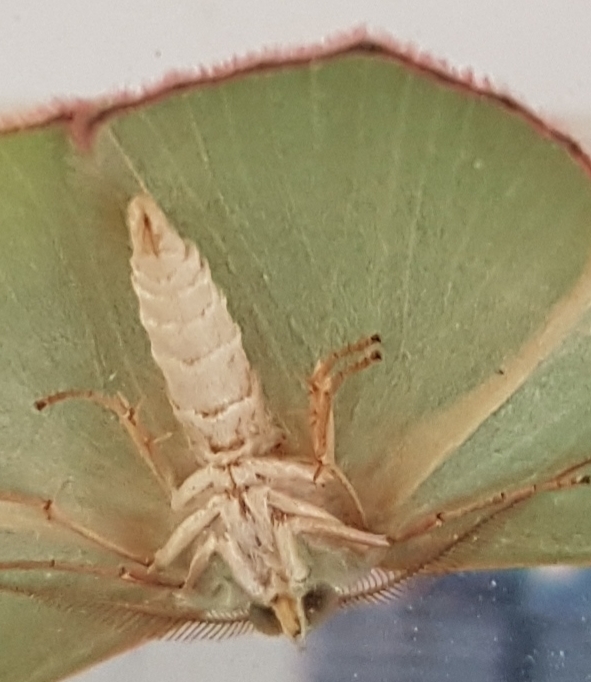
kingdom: Animalia
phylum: Arthropoda
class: Insecta
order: Lepidoptera
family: Geometridae
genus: Prasinocyma
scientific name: Prasinocyma semicrocea
